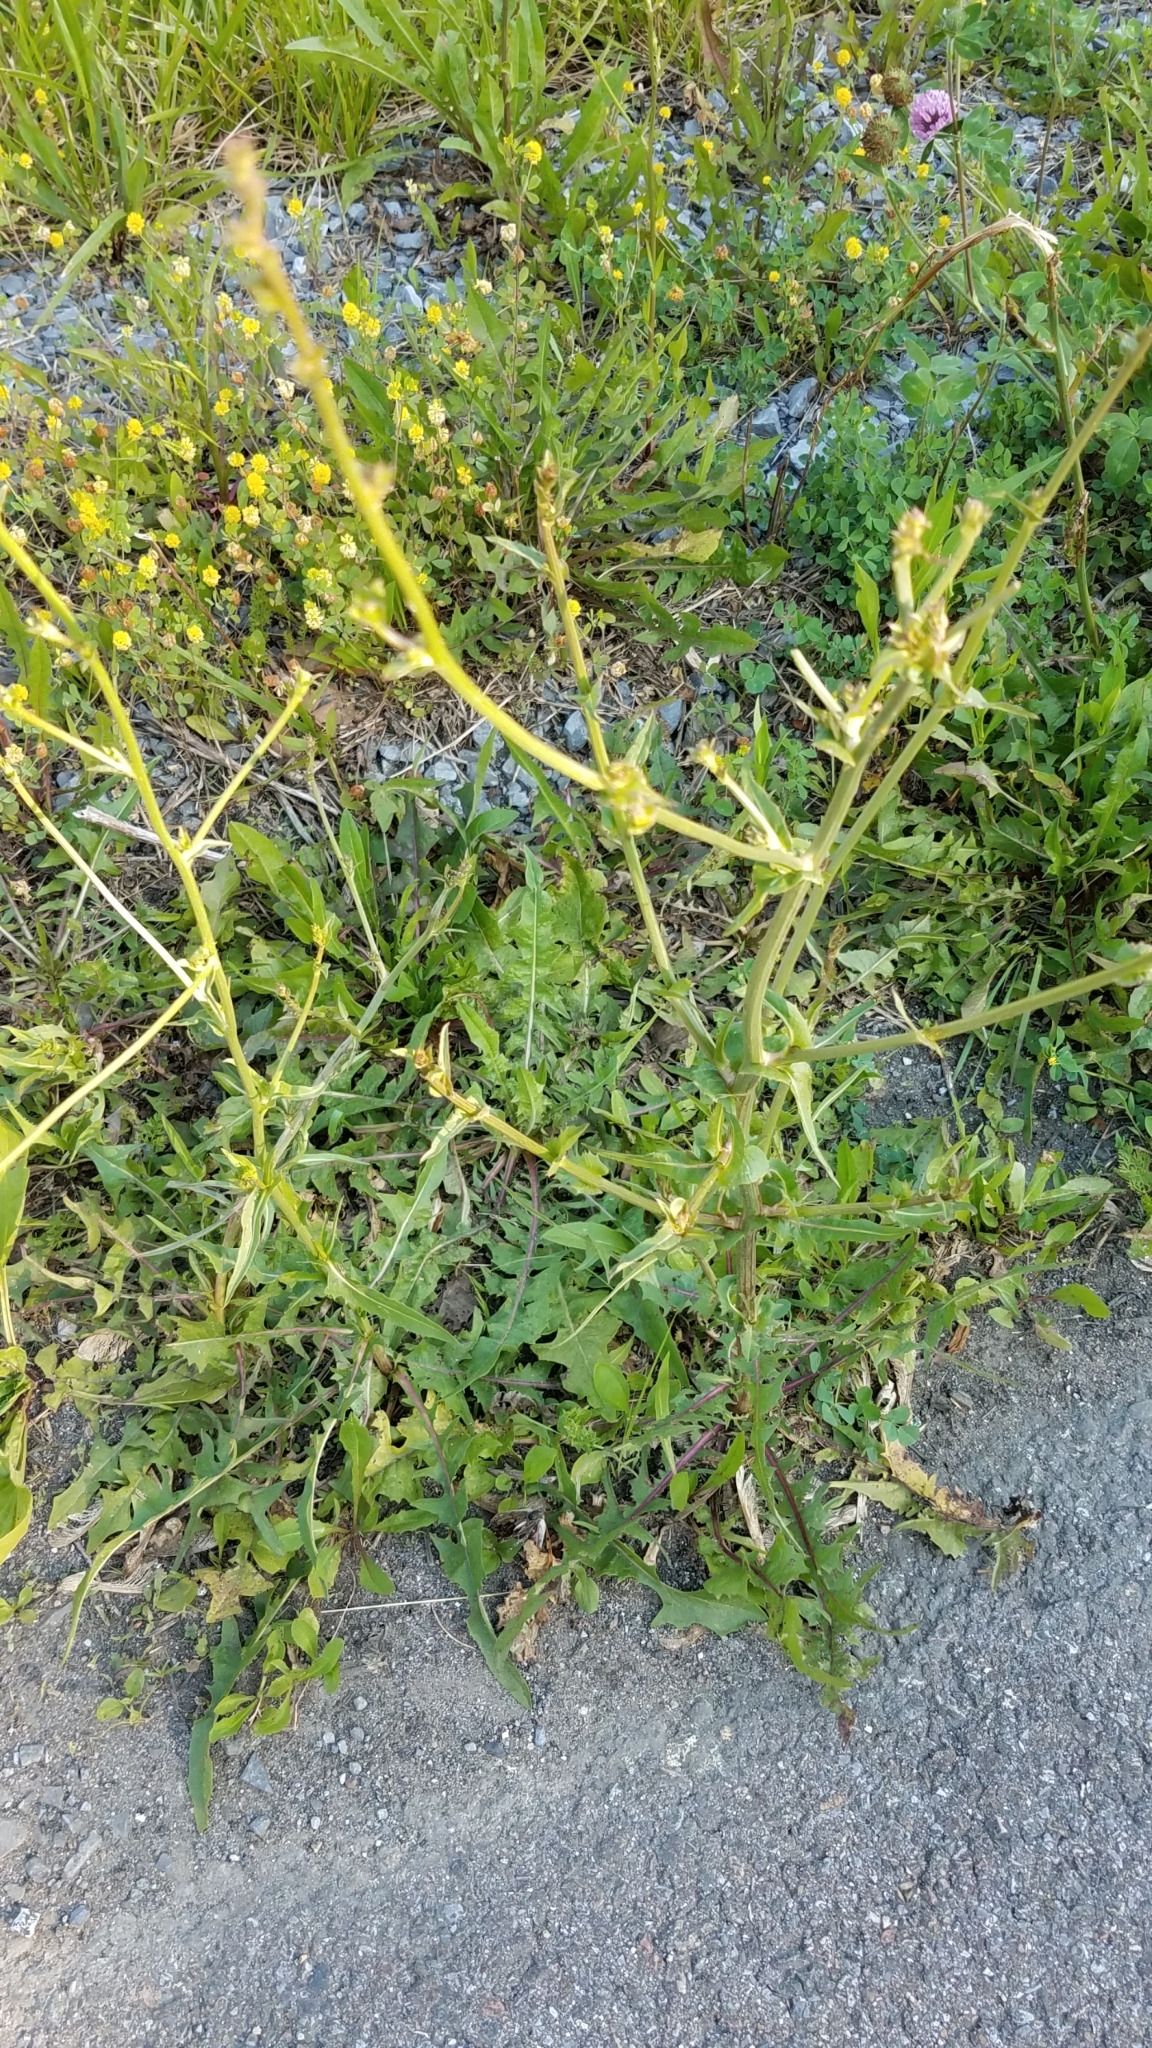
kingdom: Plantae
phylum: Tracheophyta
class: Magnoliopsida
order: Asterales
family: Asteraceae
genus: Cichorium
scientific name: Cichorium intybus
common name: Chicory
